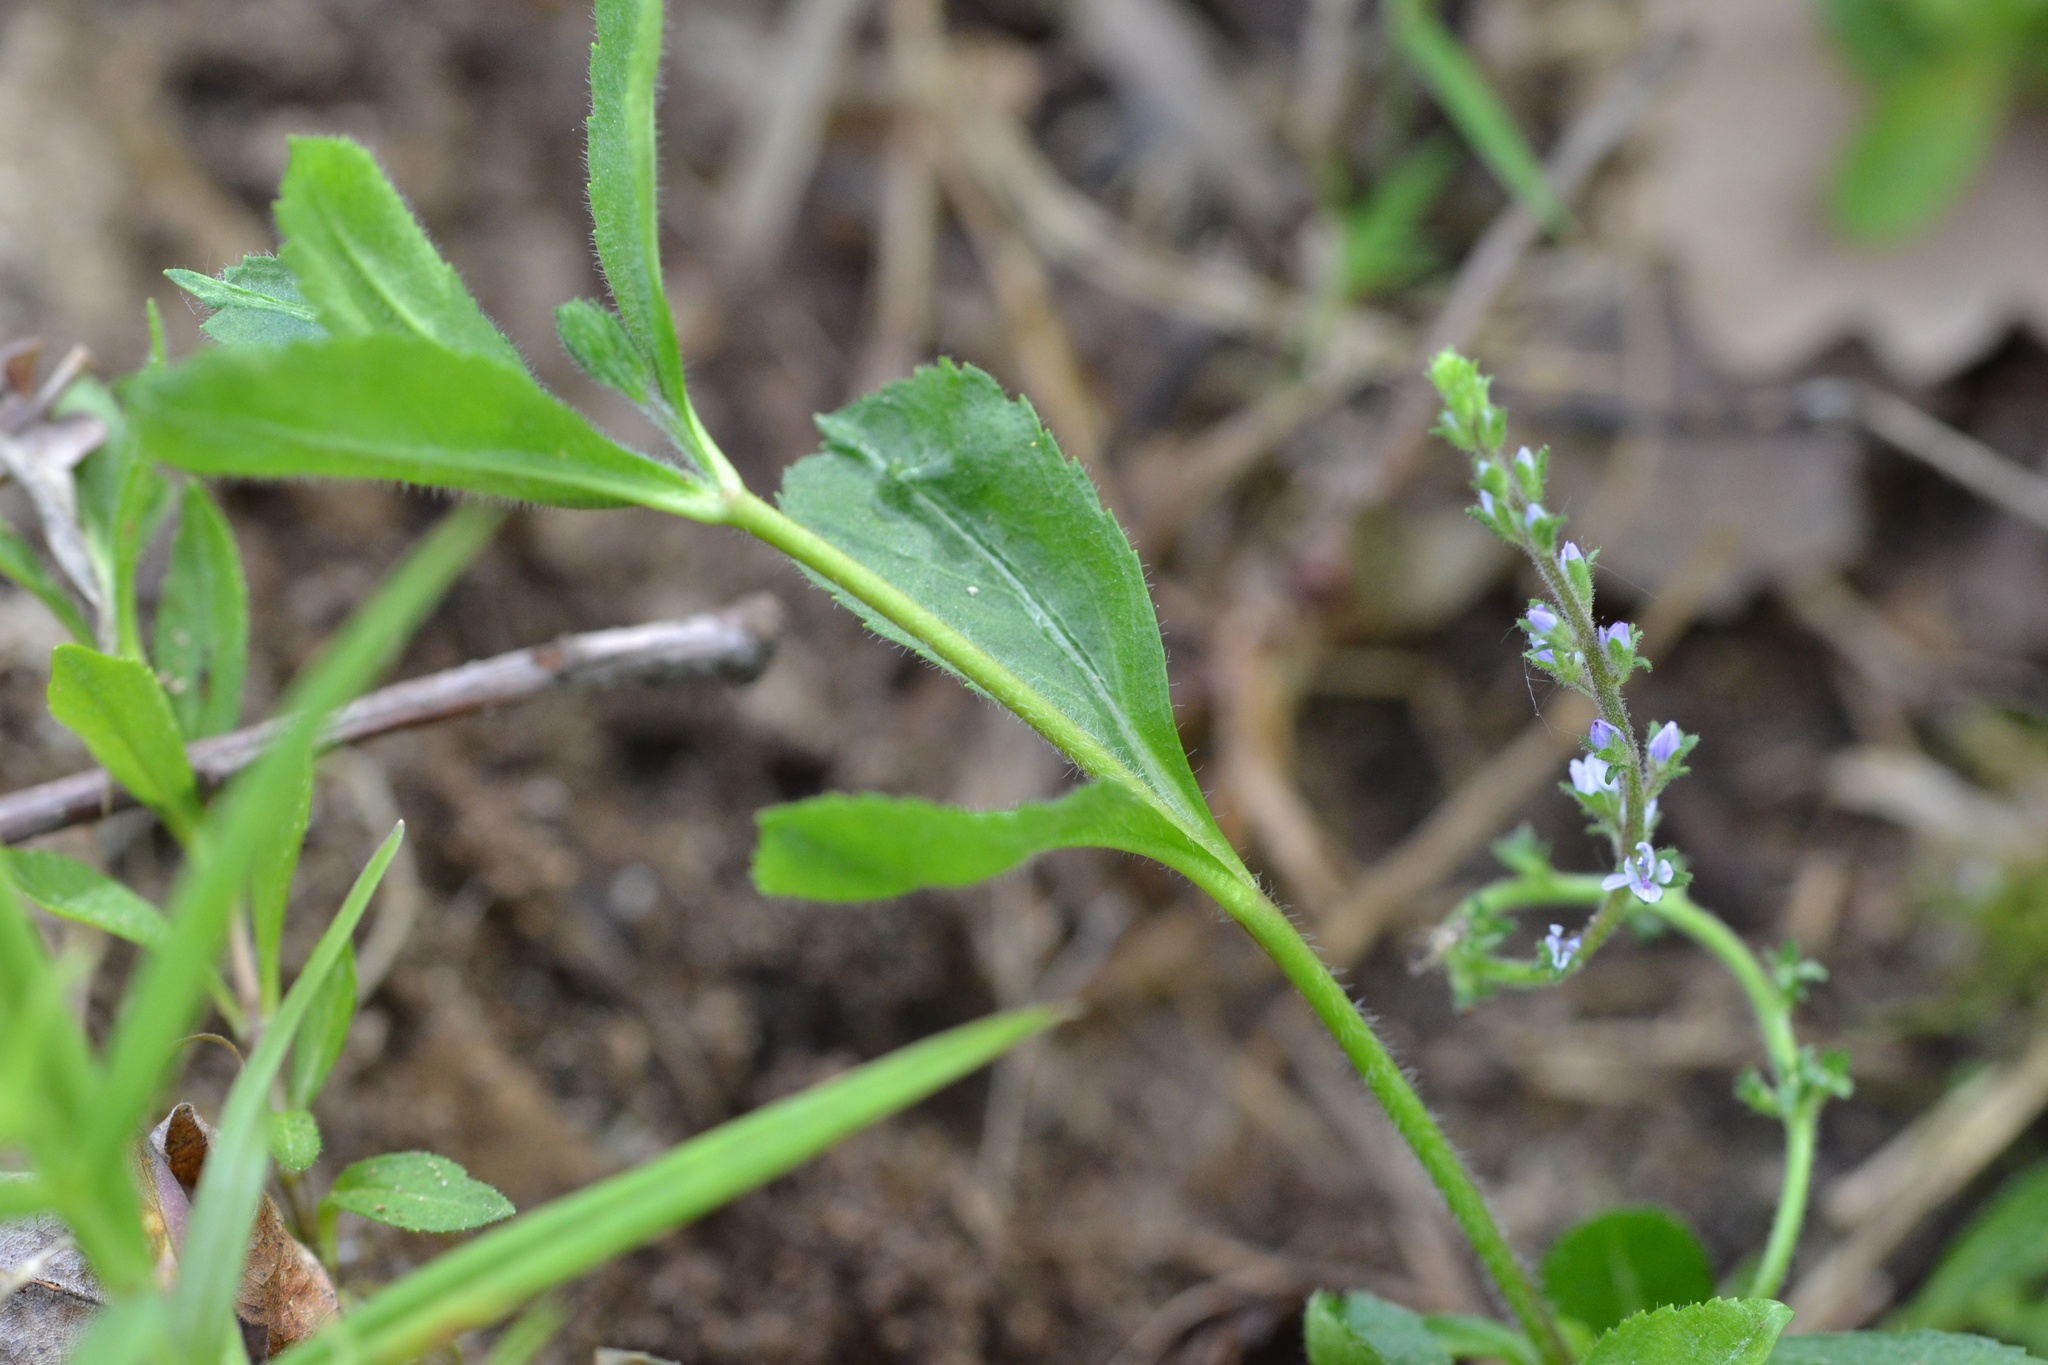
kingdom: Plantae
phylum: Tracheophyta
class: Magnoliopsida
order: Lamiales
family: Plantaginaceae
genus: Veronica
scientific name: Veronica officinalis
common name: Common speedwell
